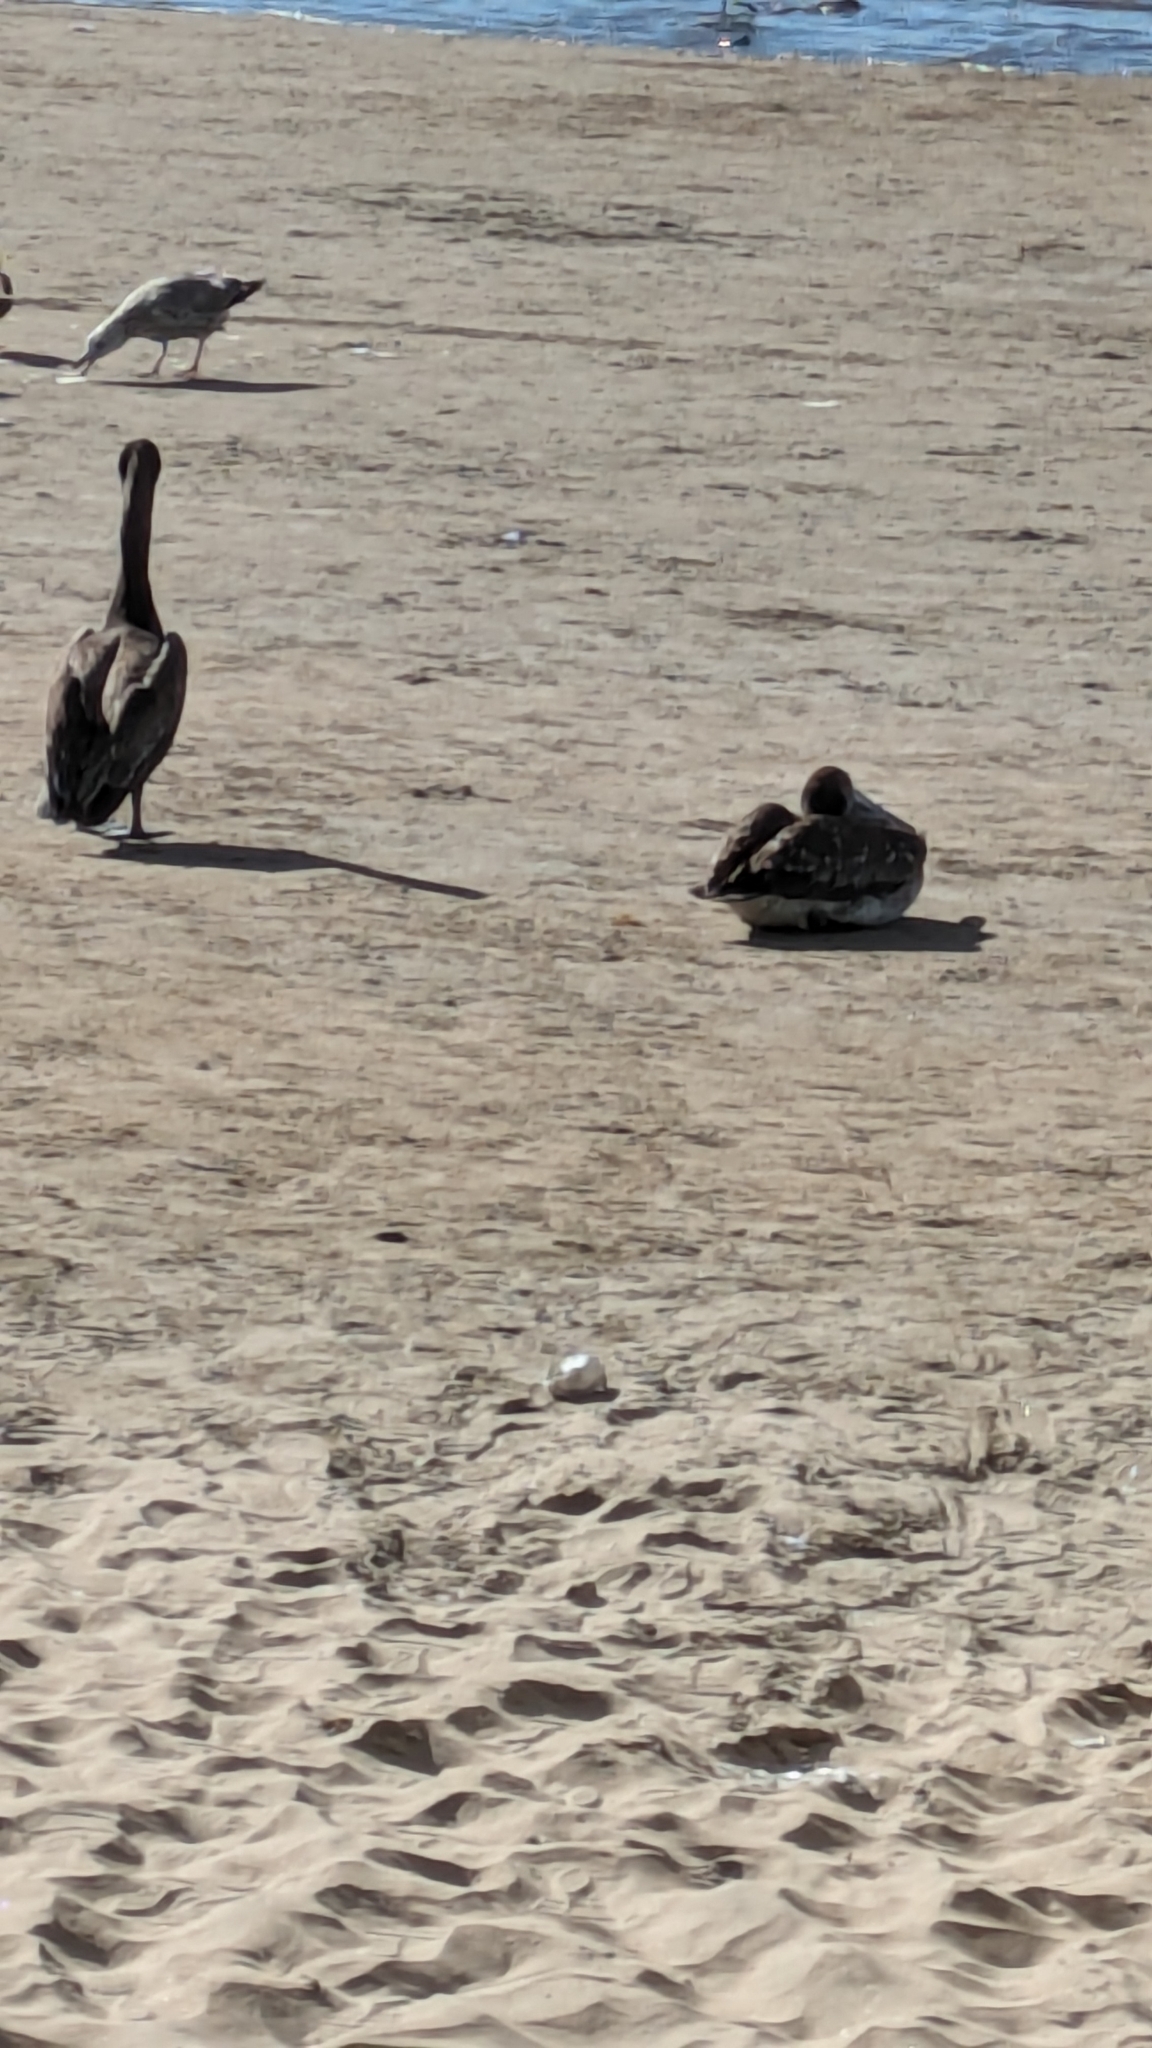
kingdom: Animalia
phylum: Chordata
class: Aves
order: Pelecaniformes
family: Pelecanidae
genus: Pelecanus
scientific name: Pelecanus occidentalis
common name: Brown pelican
